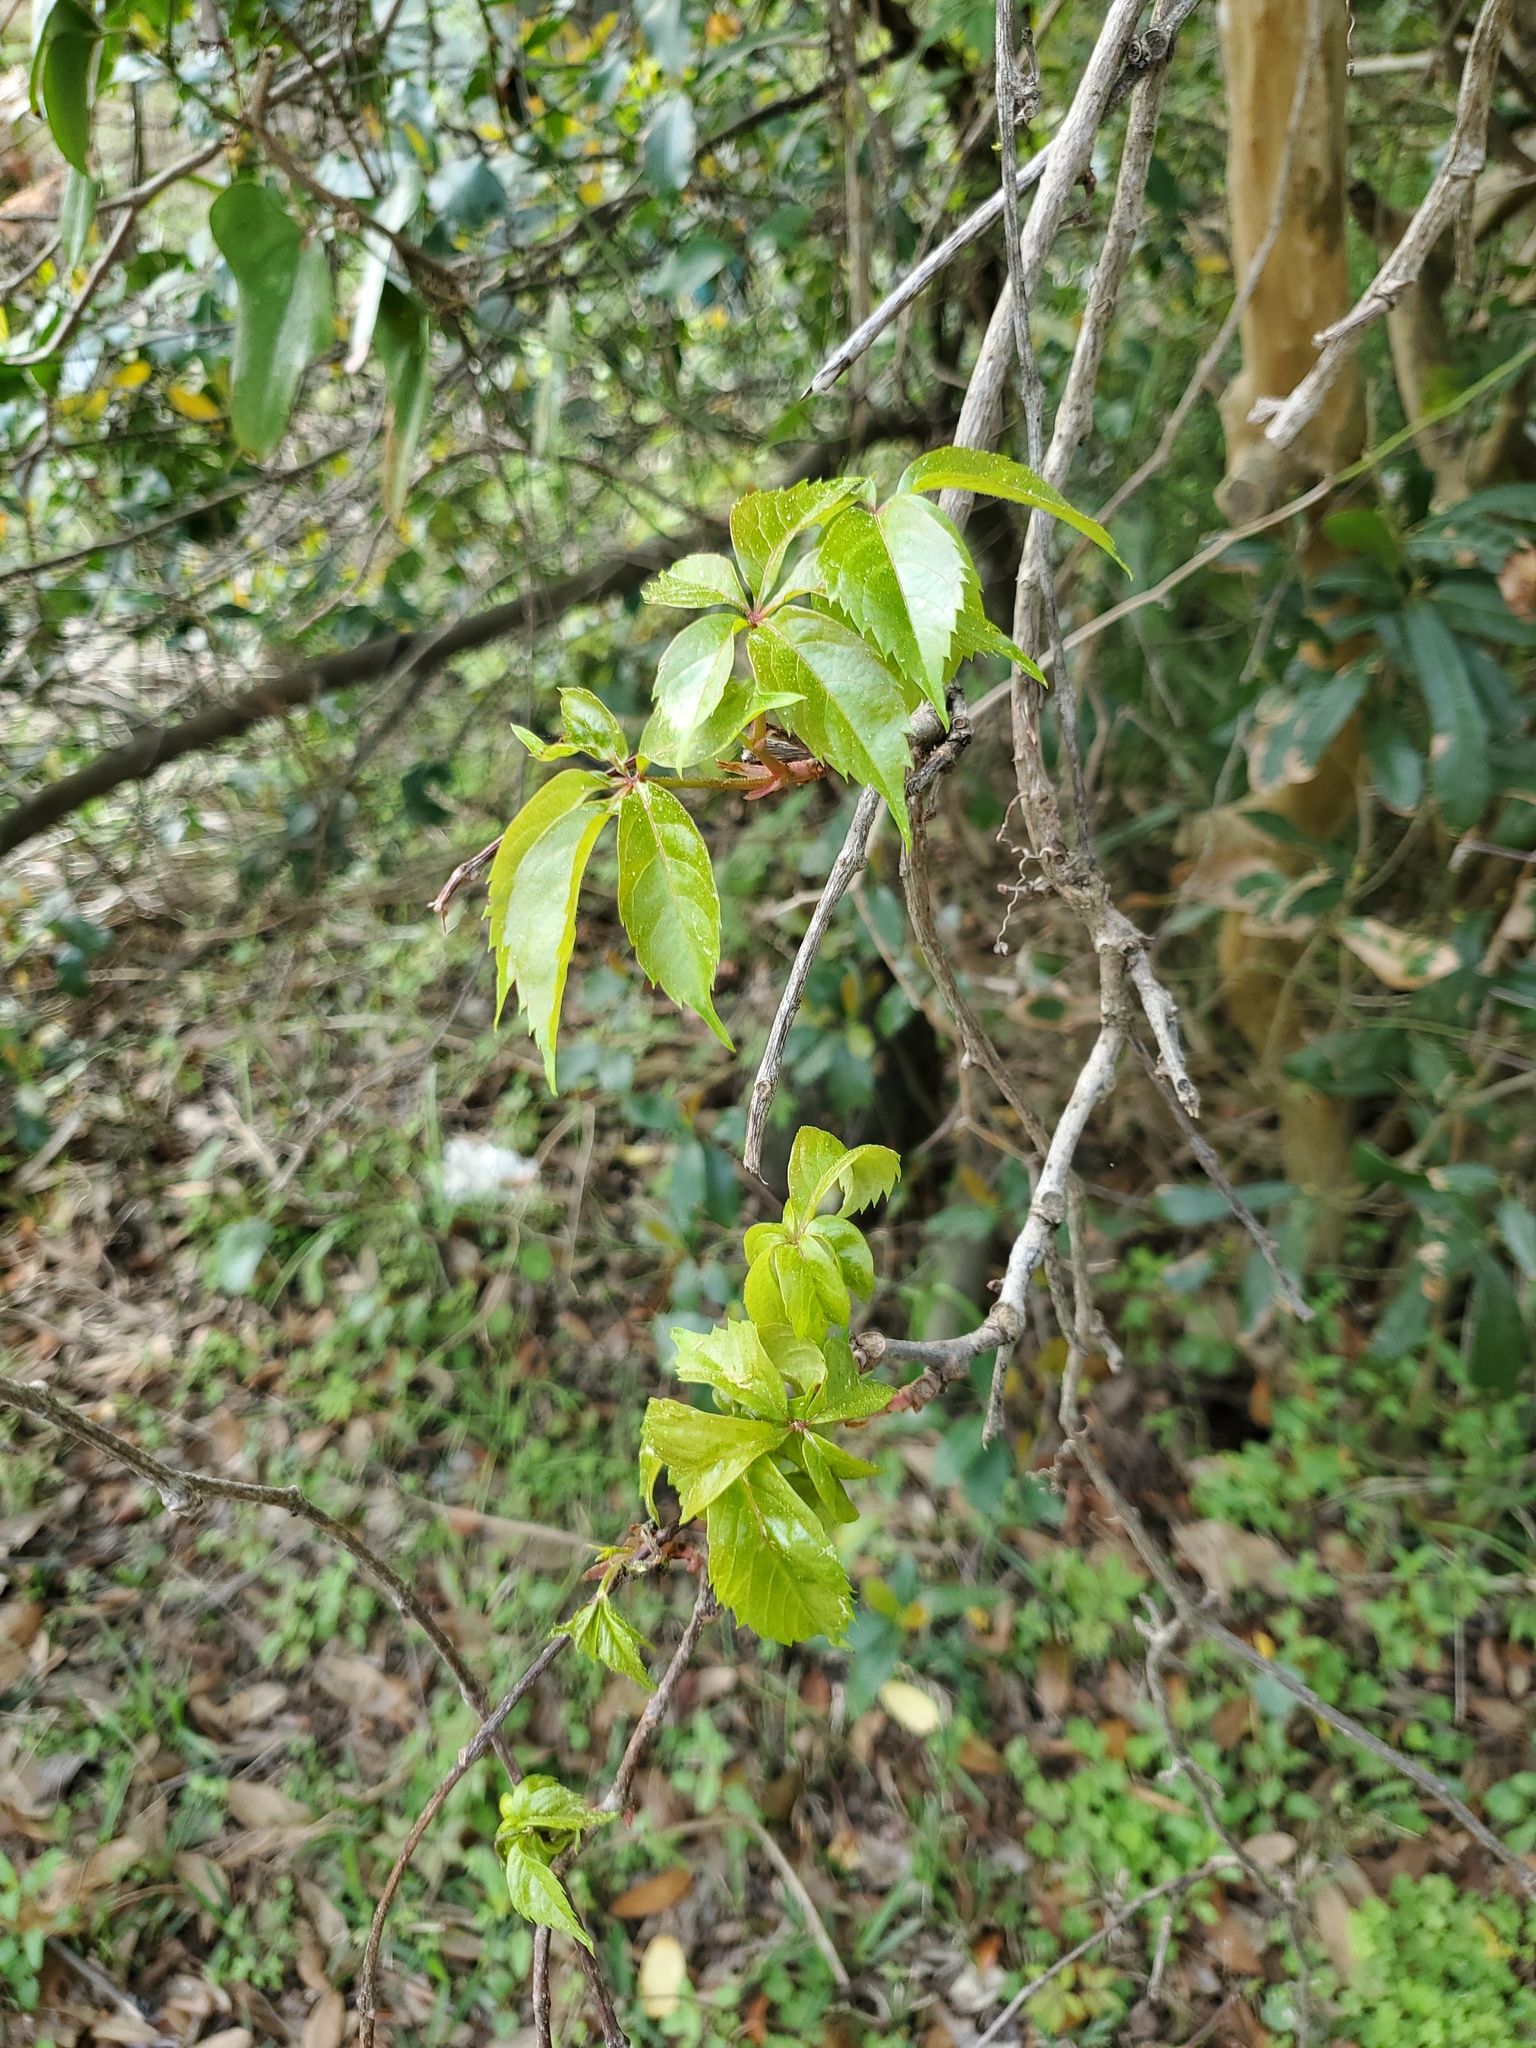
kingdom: Plantae
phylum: Tracheophyta
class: Magnoliopsida
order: Vitales
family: Vitaceae
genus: Parthenocissus
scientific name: Parthenocissus quinquefolia
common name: Virginia-creeper
